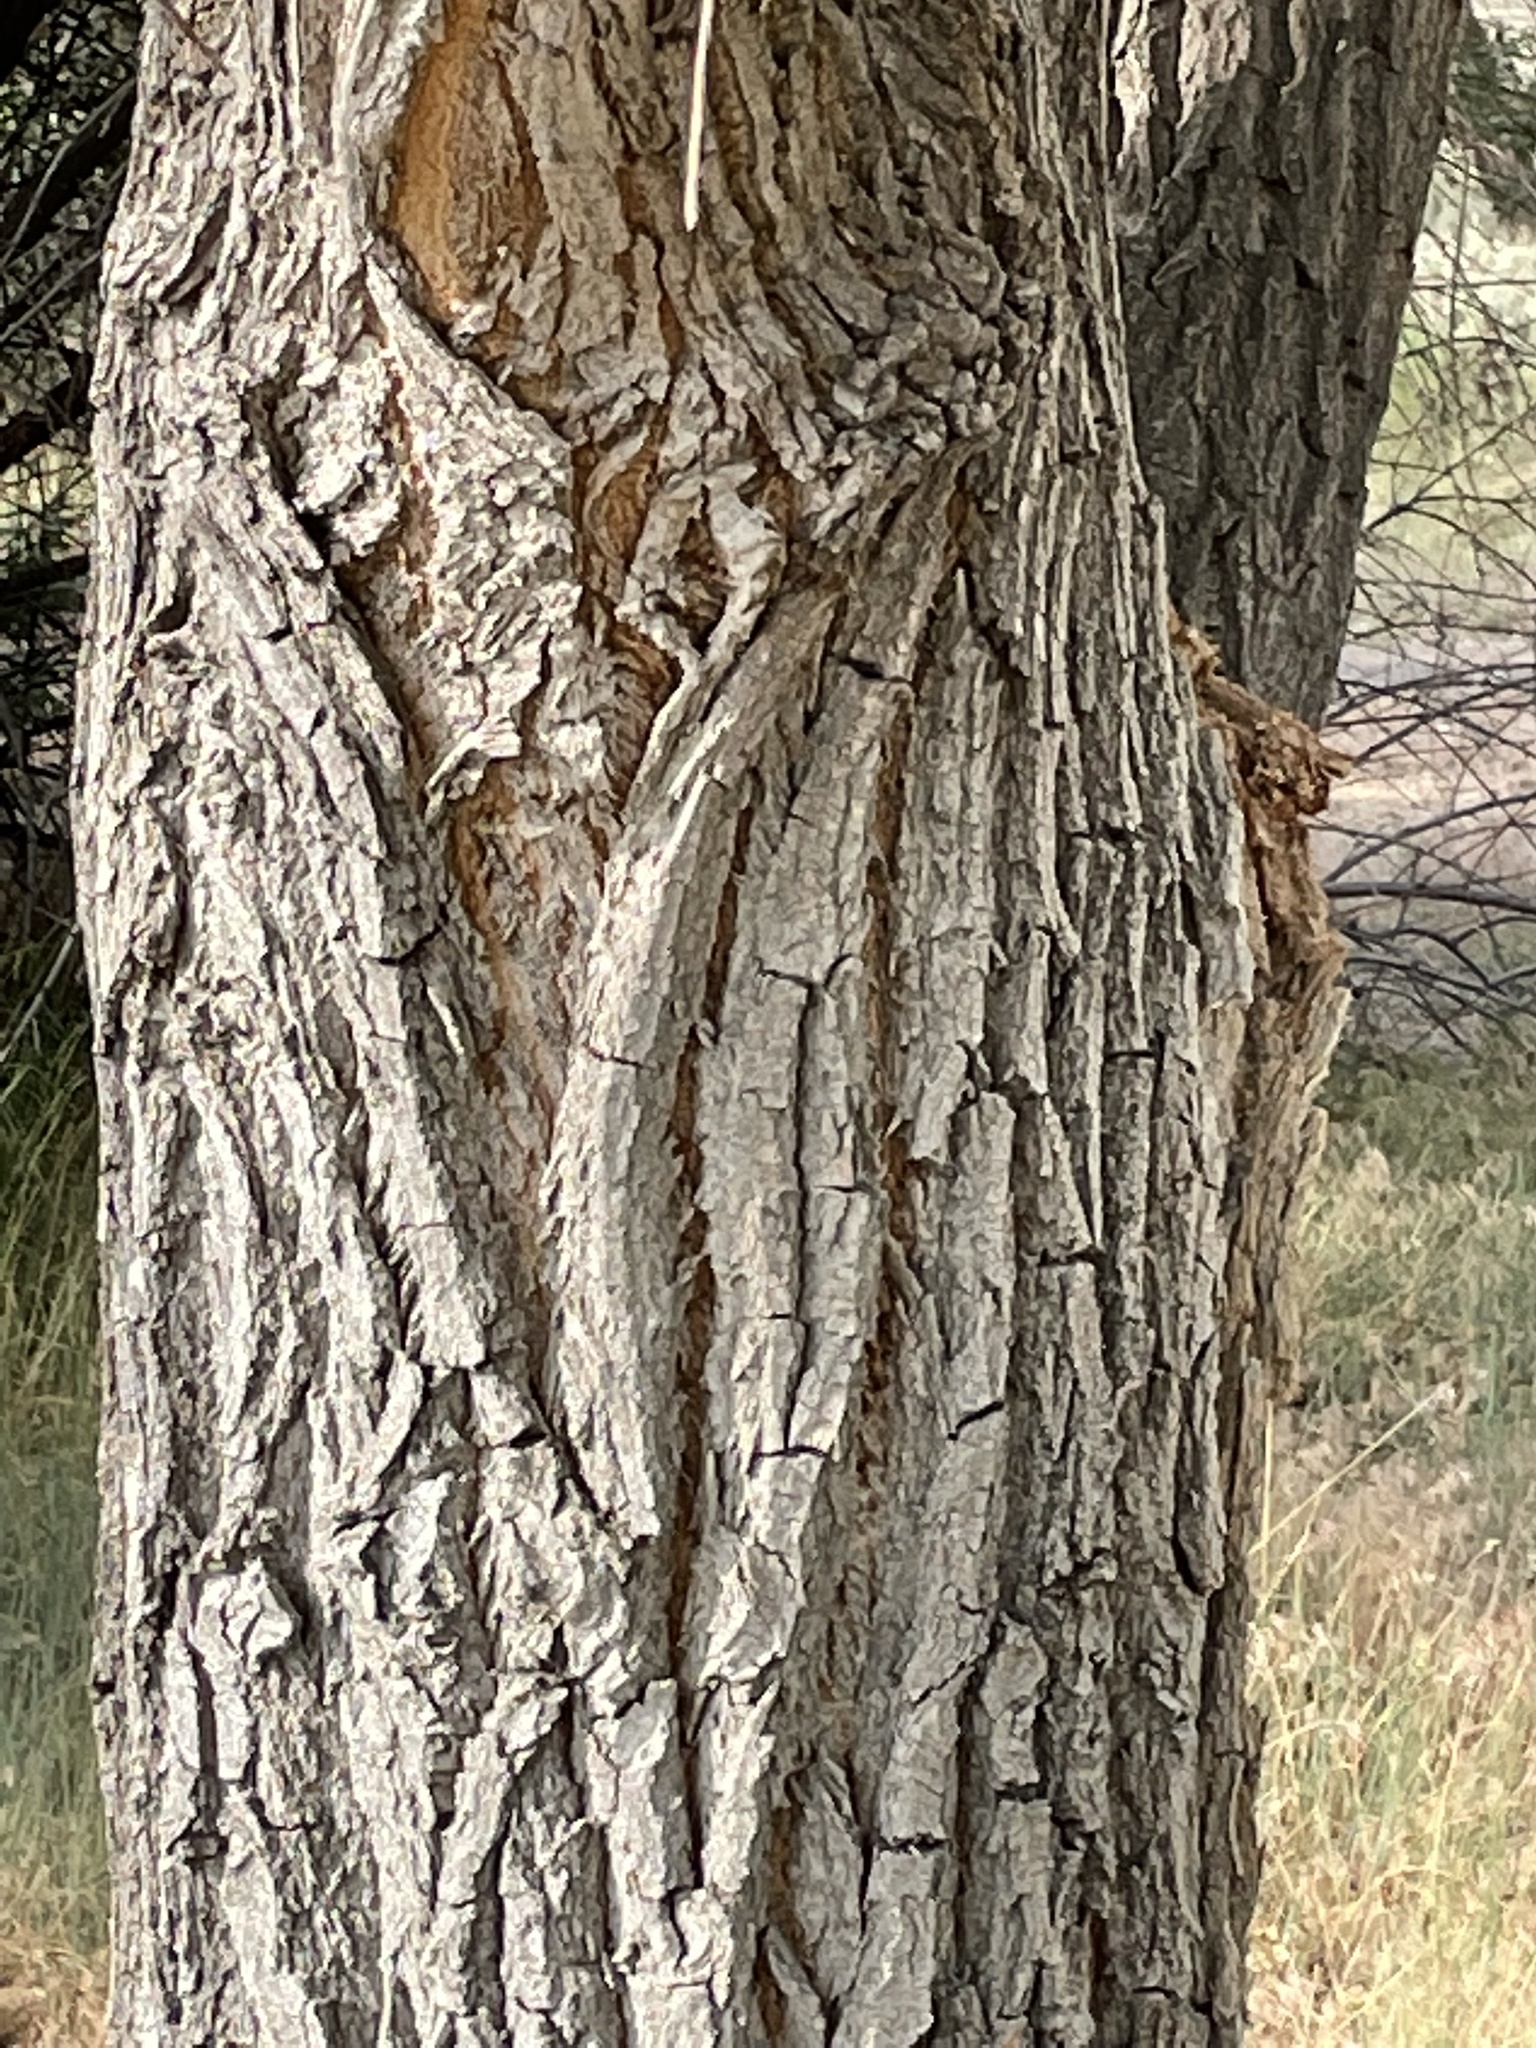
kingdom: Plantae
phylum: Tracheophyta
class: Magnoliopsida
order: Malpighiales
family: Salicaceae
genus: Populus
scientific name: Populus fremontii
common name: Fremont's cottonwood
